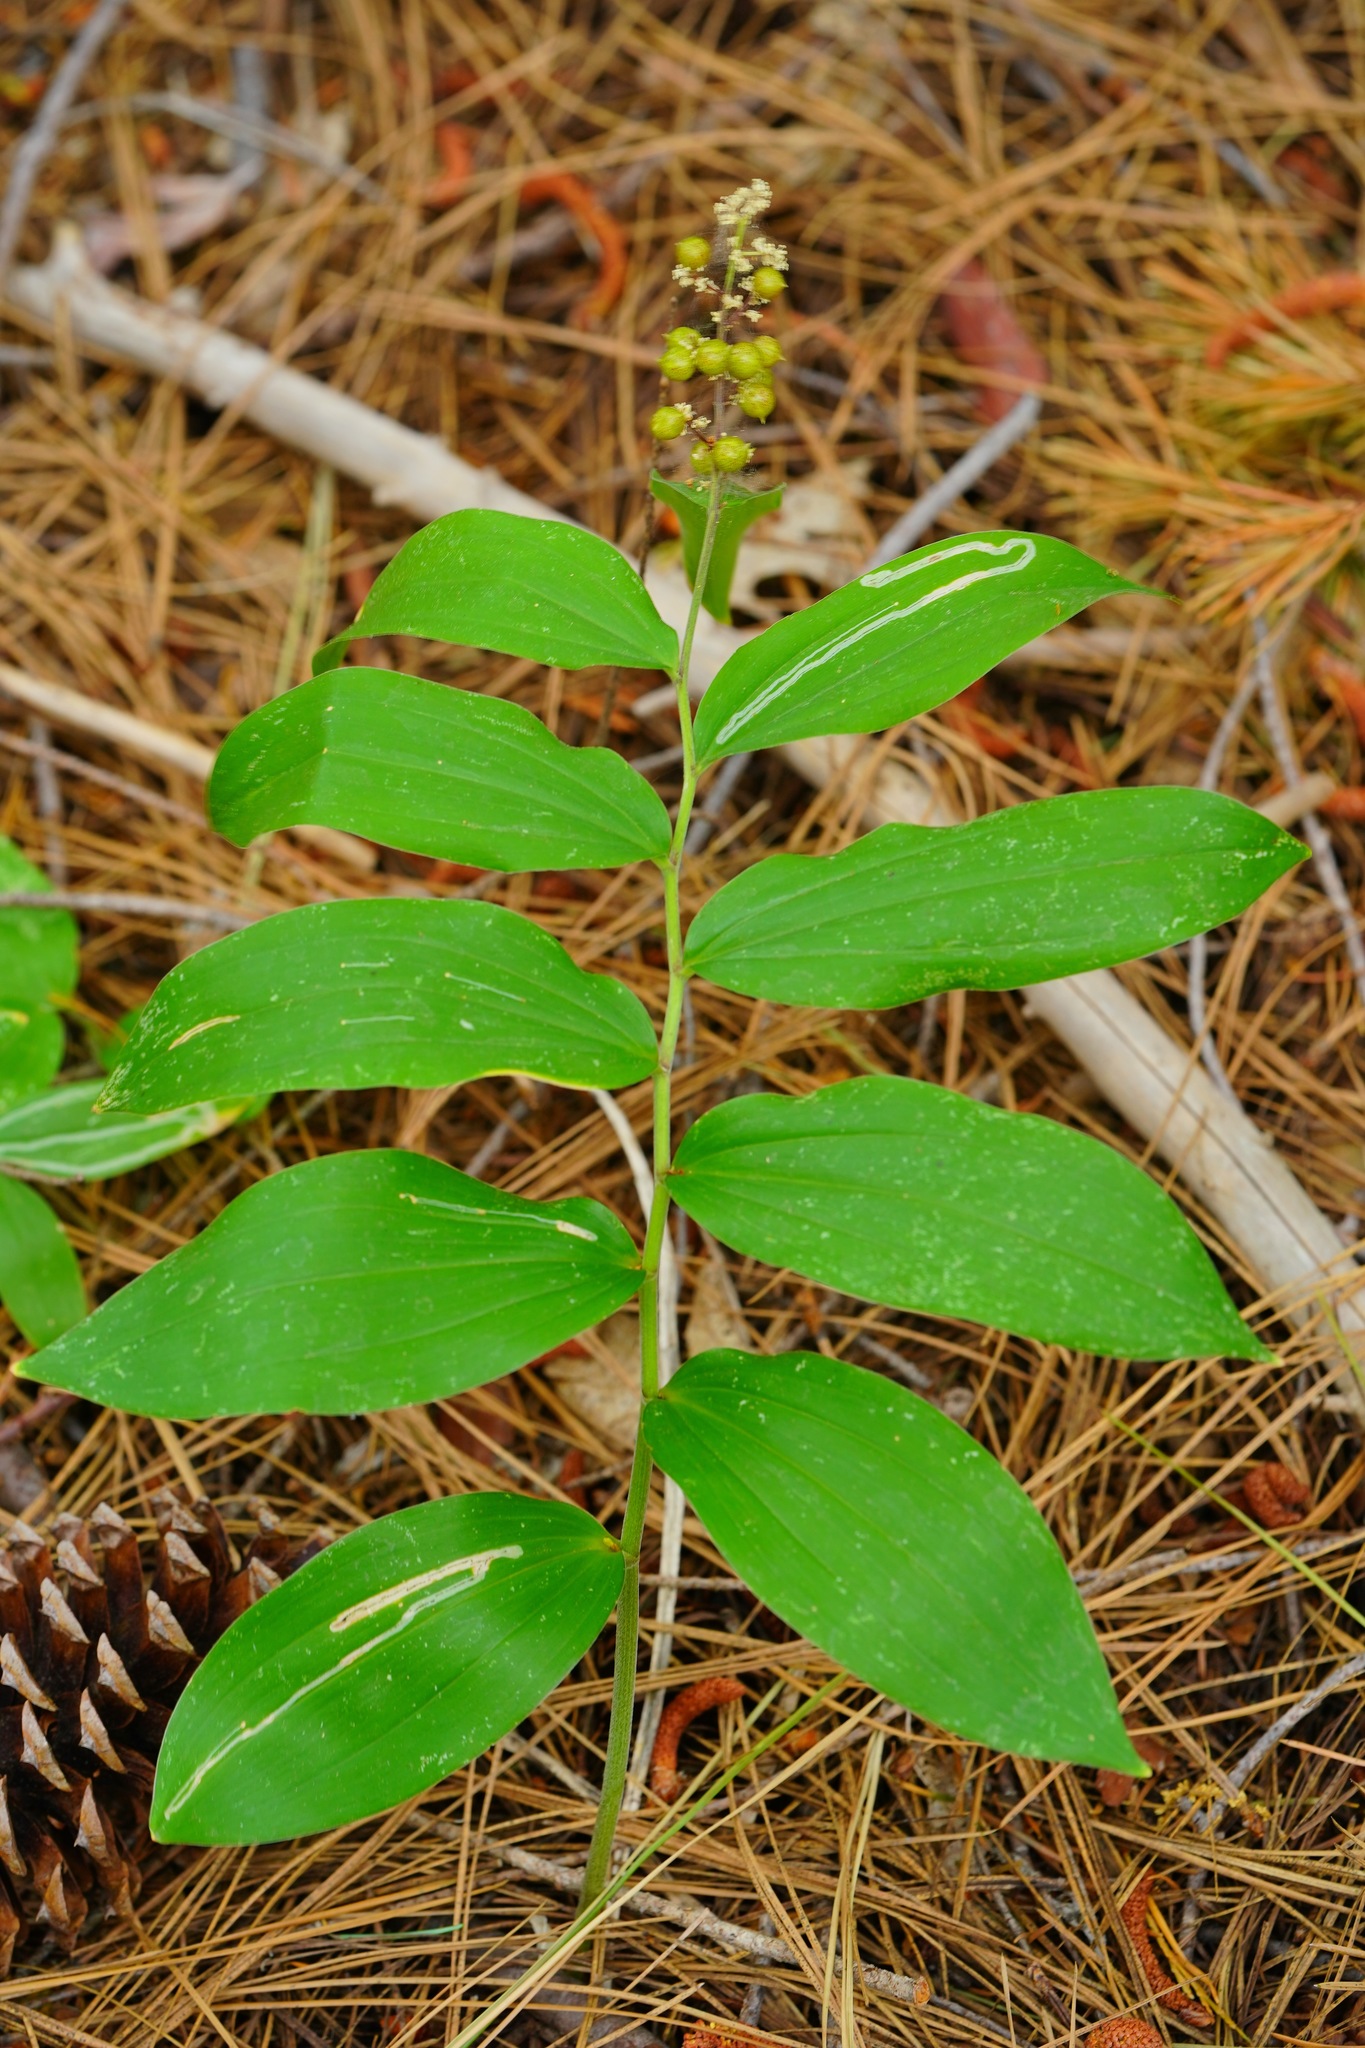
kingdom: Plantae
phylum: Tracheophyta
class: Liliopsida
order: Asparagales
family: Asparagaceae
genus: Maianthemum
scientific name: Maianthemum racemosum
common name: False spikenard
